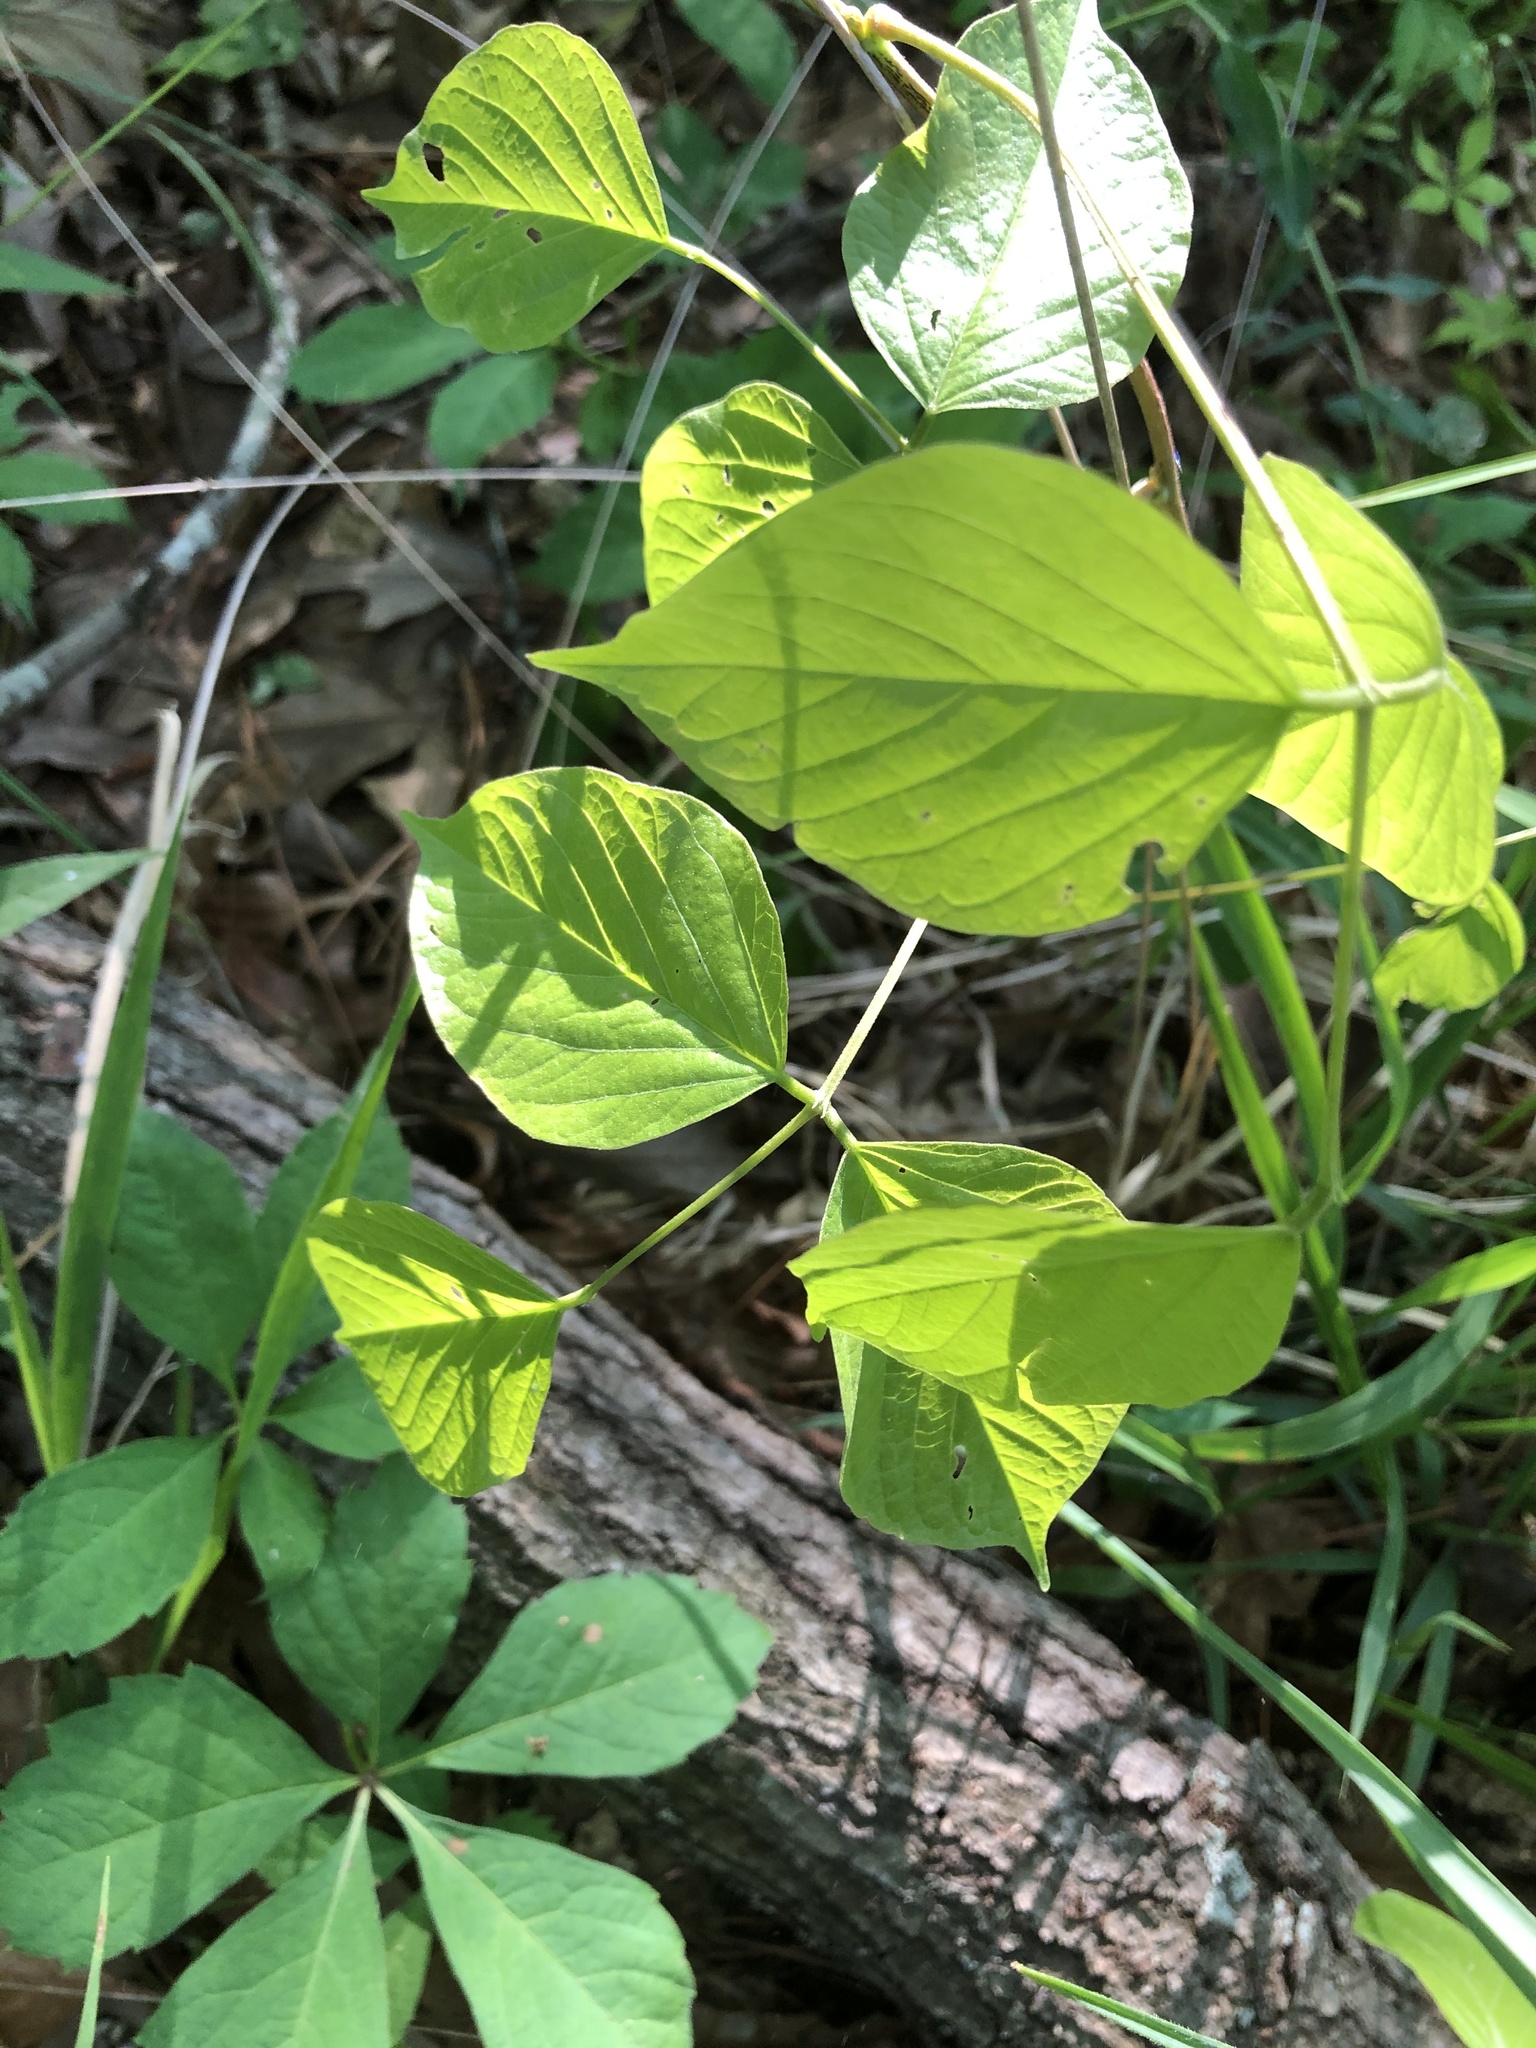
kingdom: Plantae
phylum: Tracheophyta
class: Magnoliopsida
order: Fabales
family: Fabaceae
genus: Lackeya
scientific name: Lackeya multiflora
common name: Boykin's clusterpea
